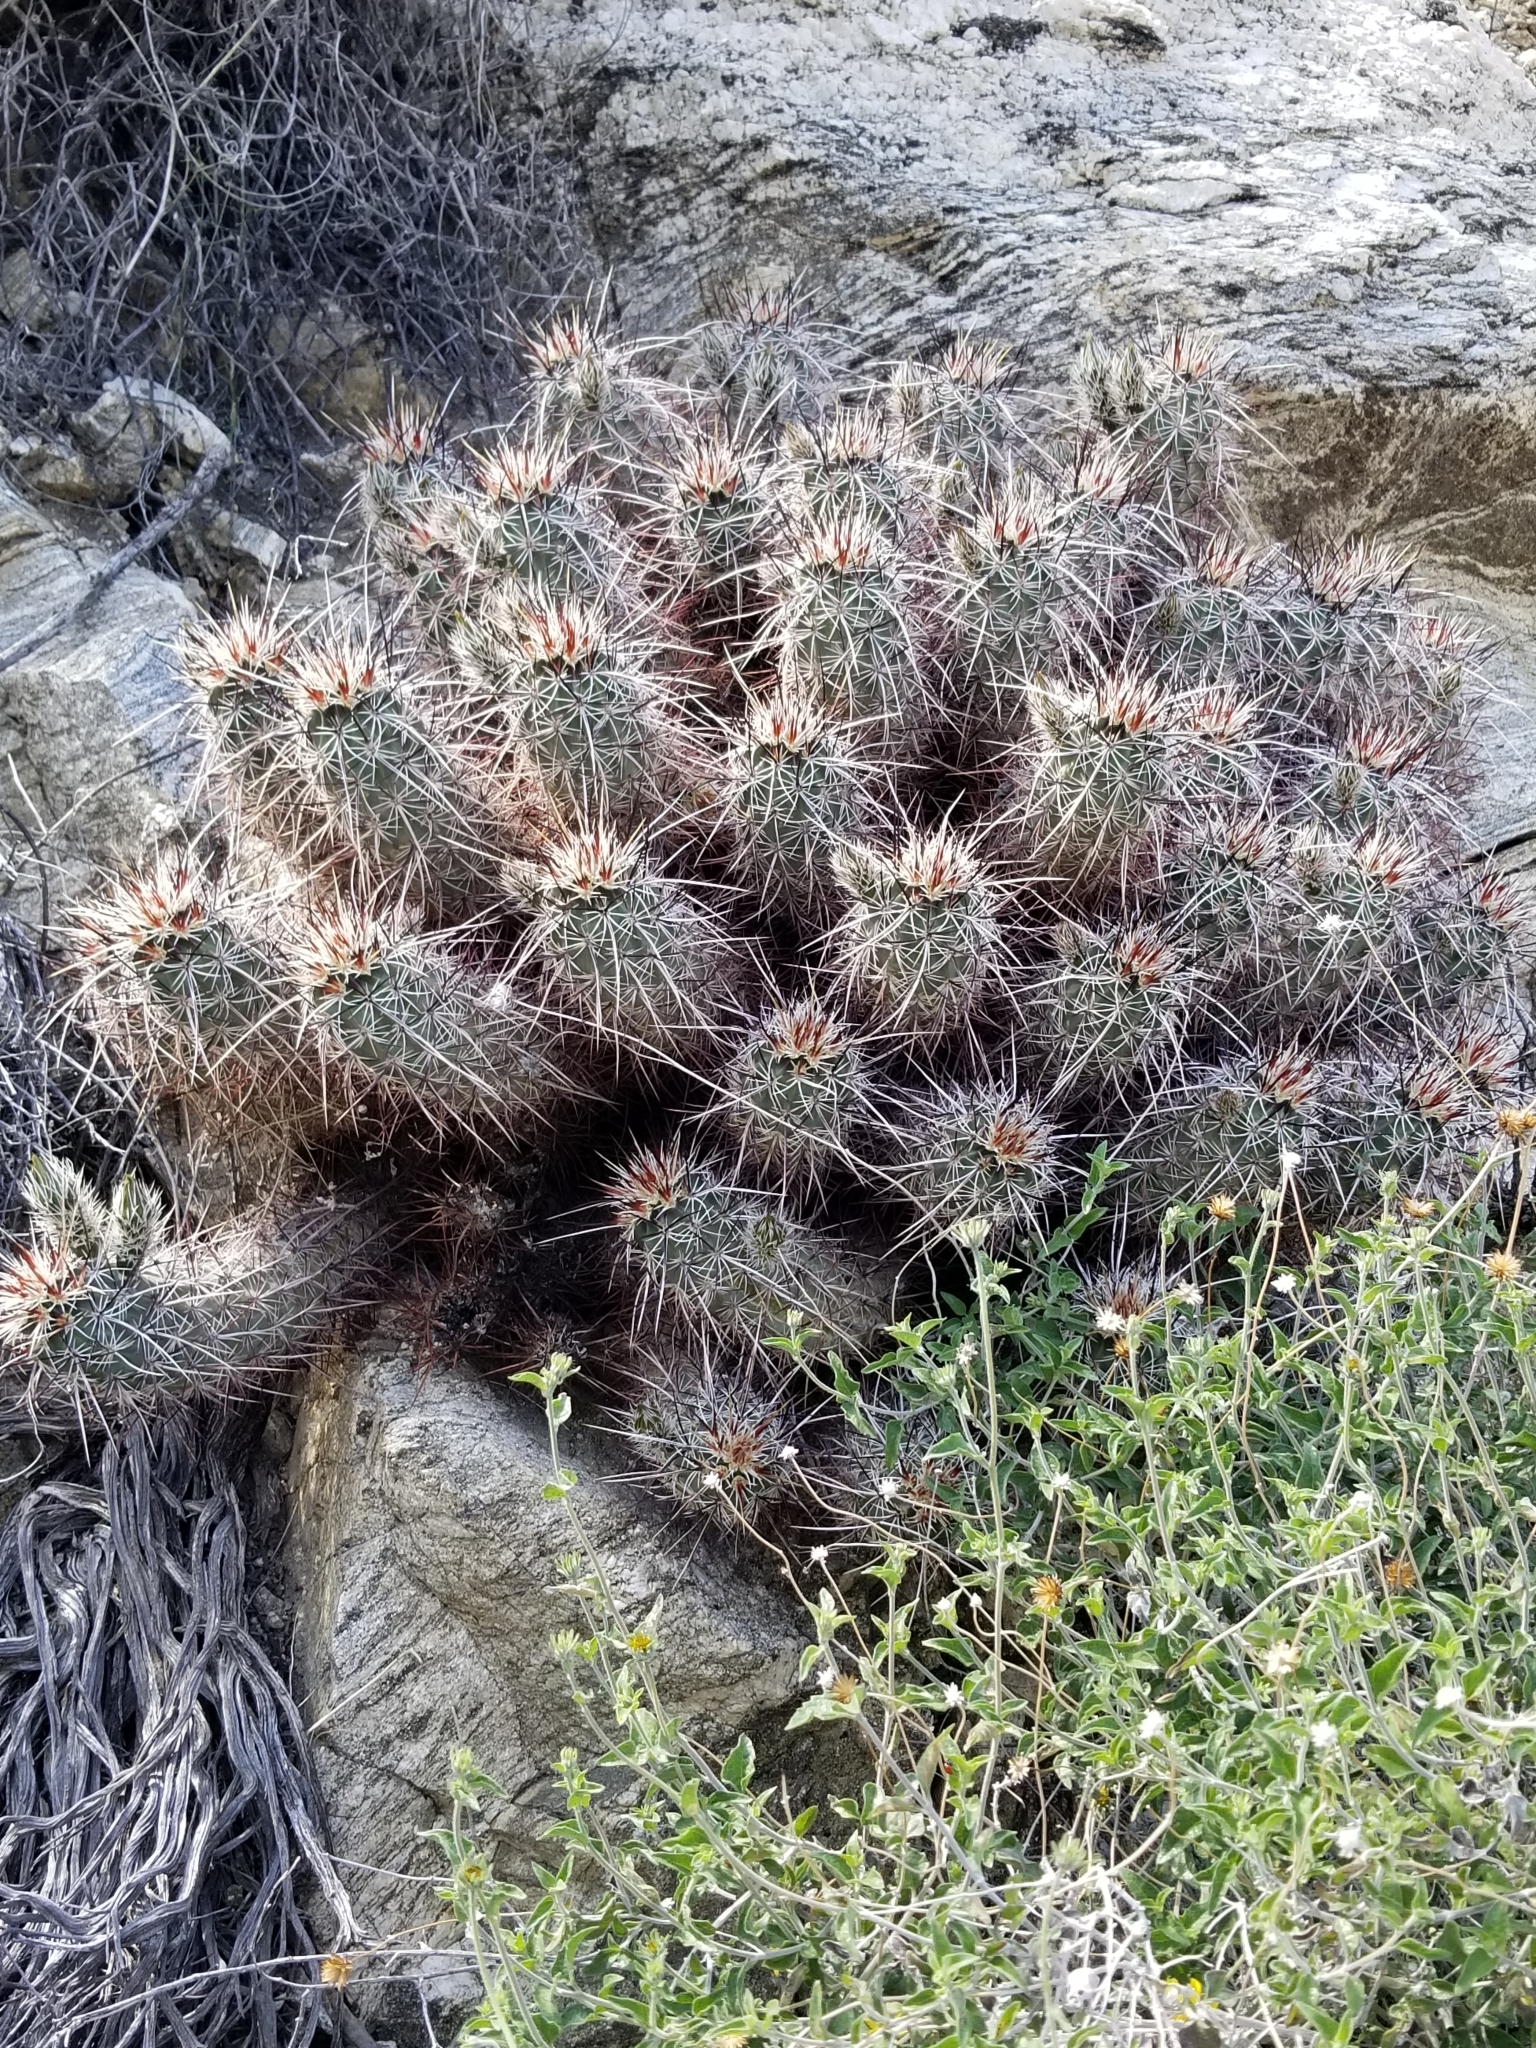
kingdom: Plantae
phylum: Tracheophyta
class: Magnoliopsida
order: Caryophyllales
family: Cactaceae
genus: Echinocereus
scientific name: Echinocereus engelmannii
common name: Engelmann's hedgehog cactus
